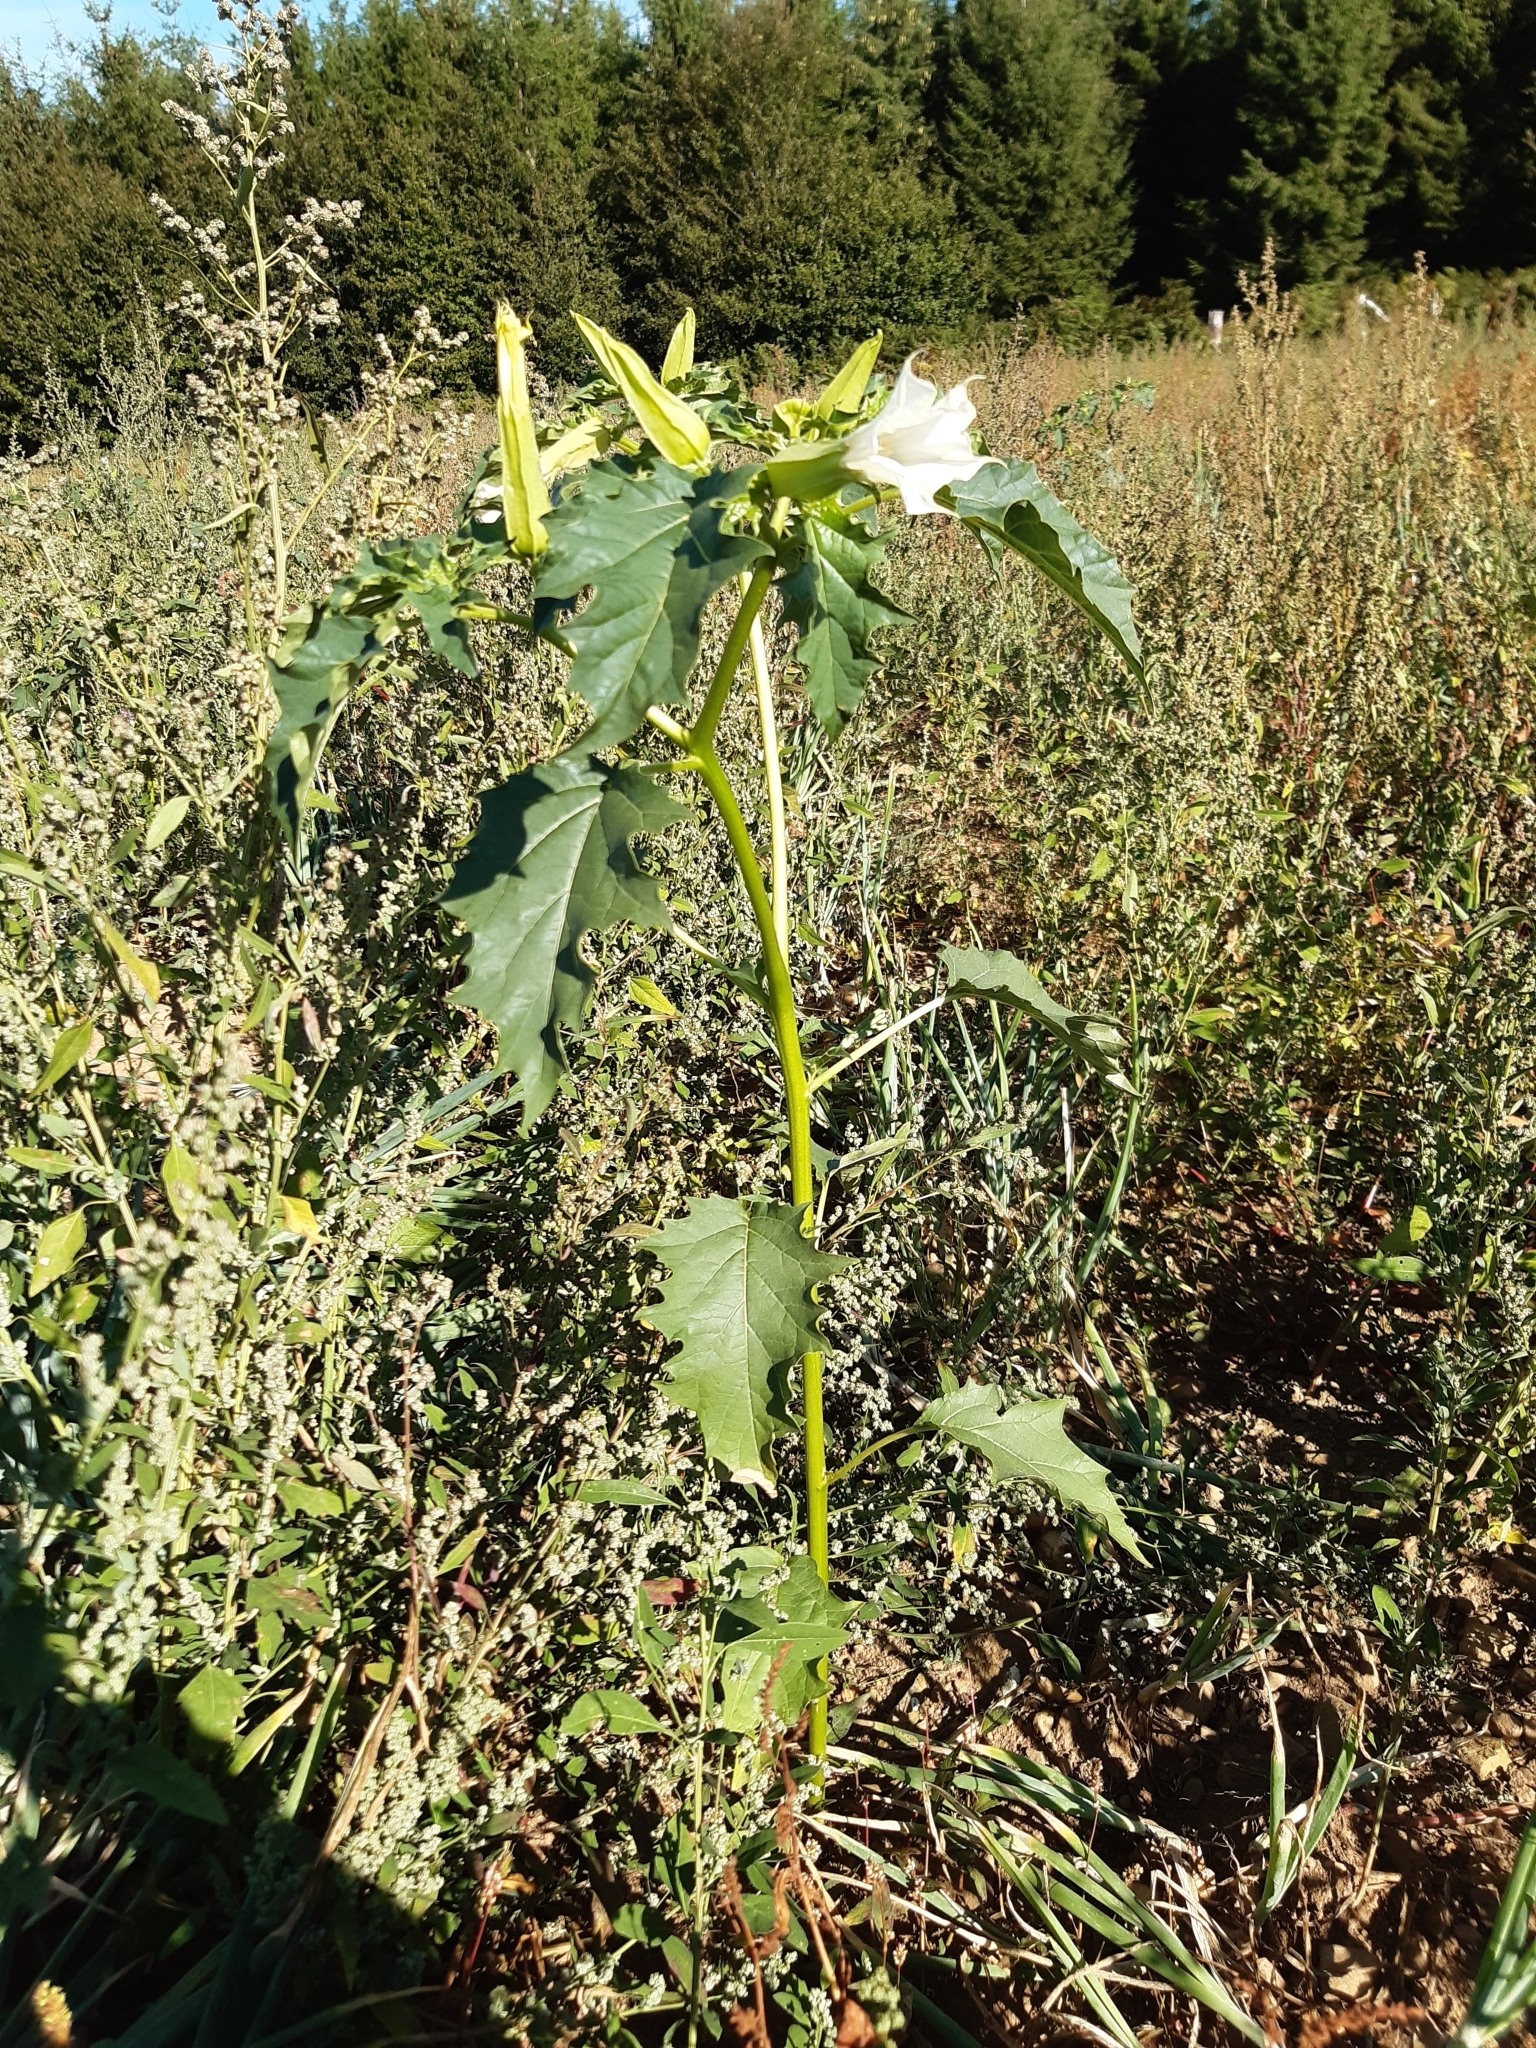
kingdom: Plantae
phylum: Tracheophyta
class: Magnoliopsida
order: Solanales
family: Solanaceae
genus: Datura
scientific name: Datura stramonium
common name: Thorn-apple
